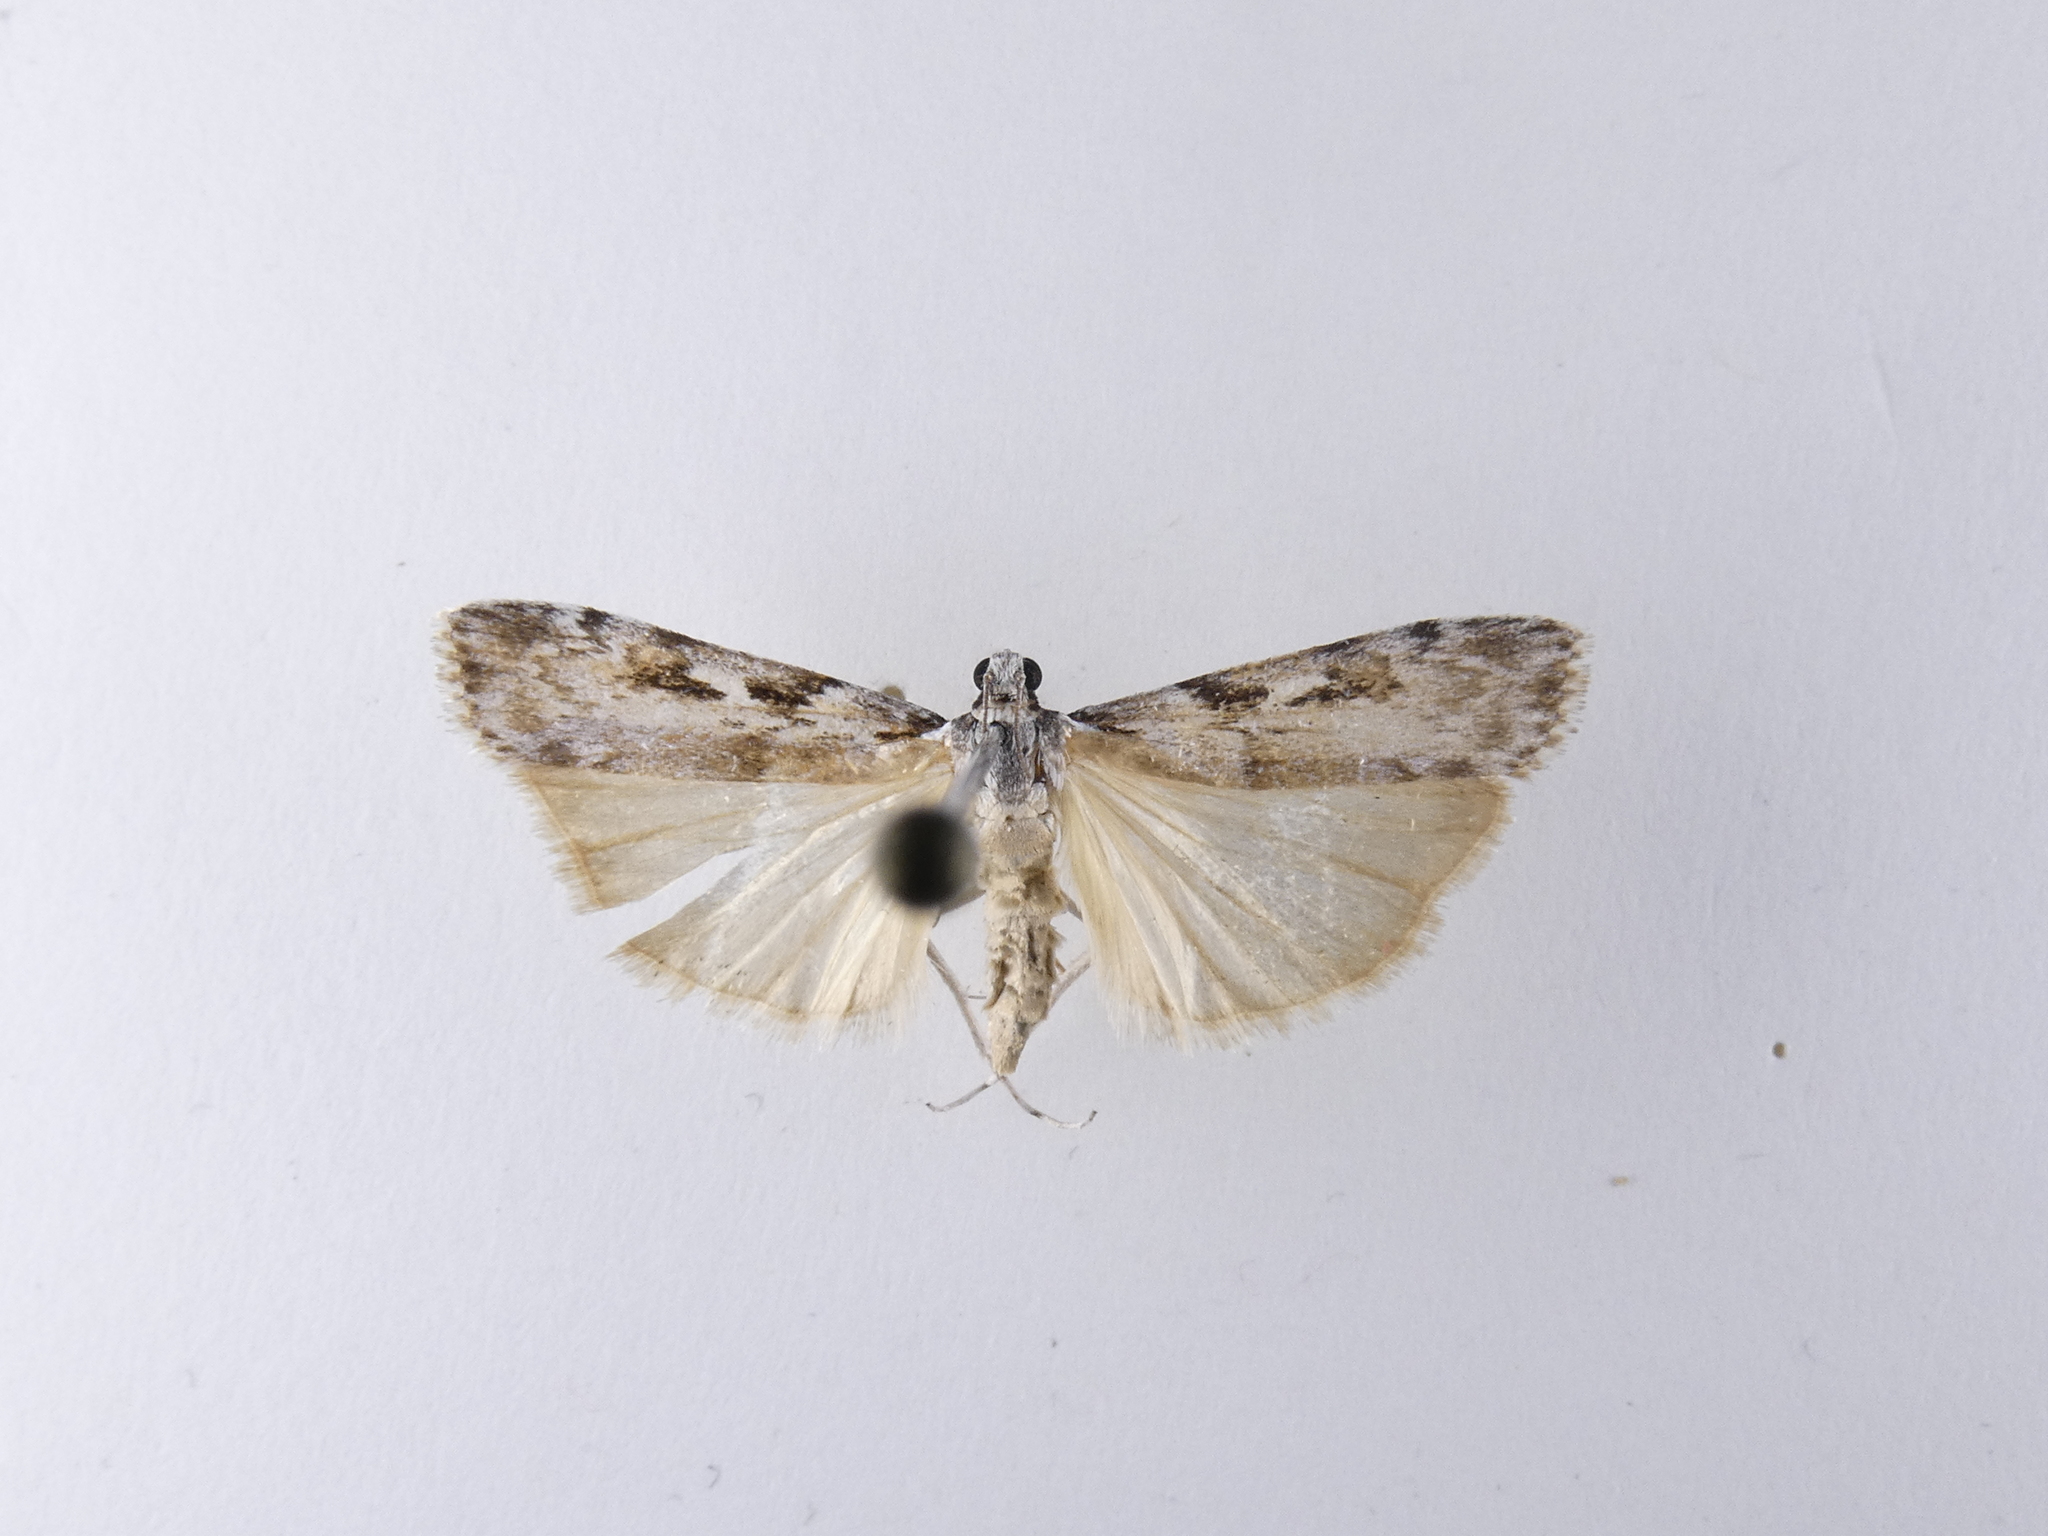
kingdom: Animalia
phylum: Arthropoda
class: Insecta
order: Lepidoptera
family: Crambidae
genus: Scoparia
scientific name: Scoparia halopis
